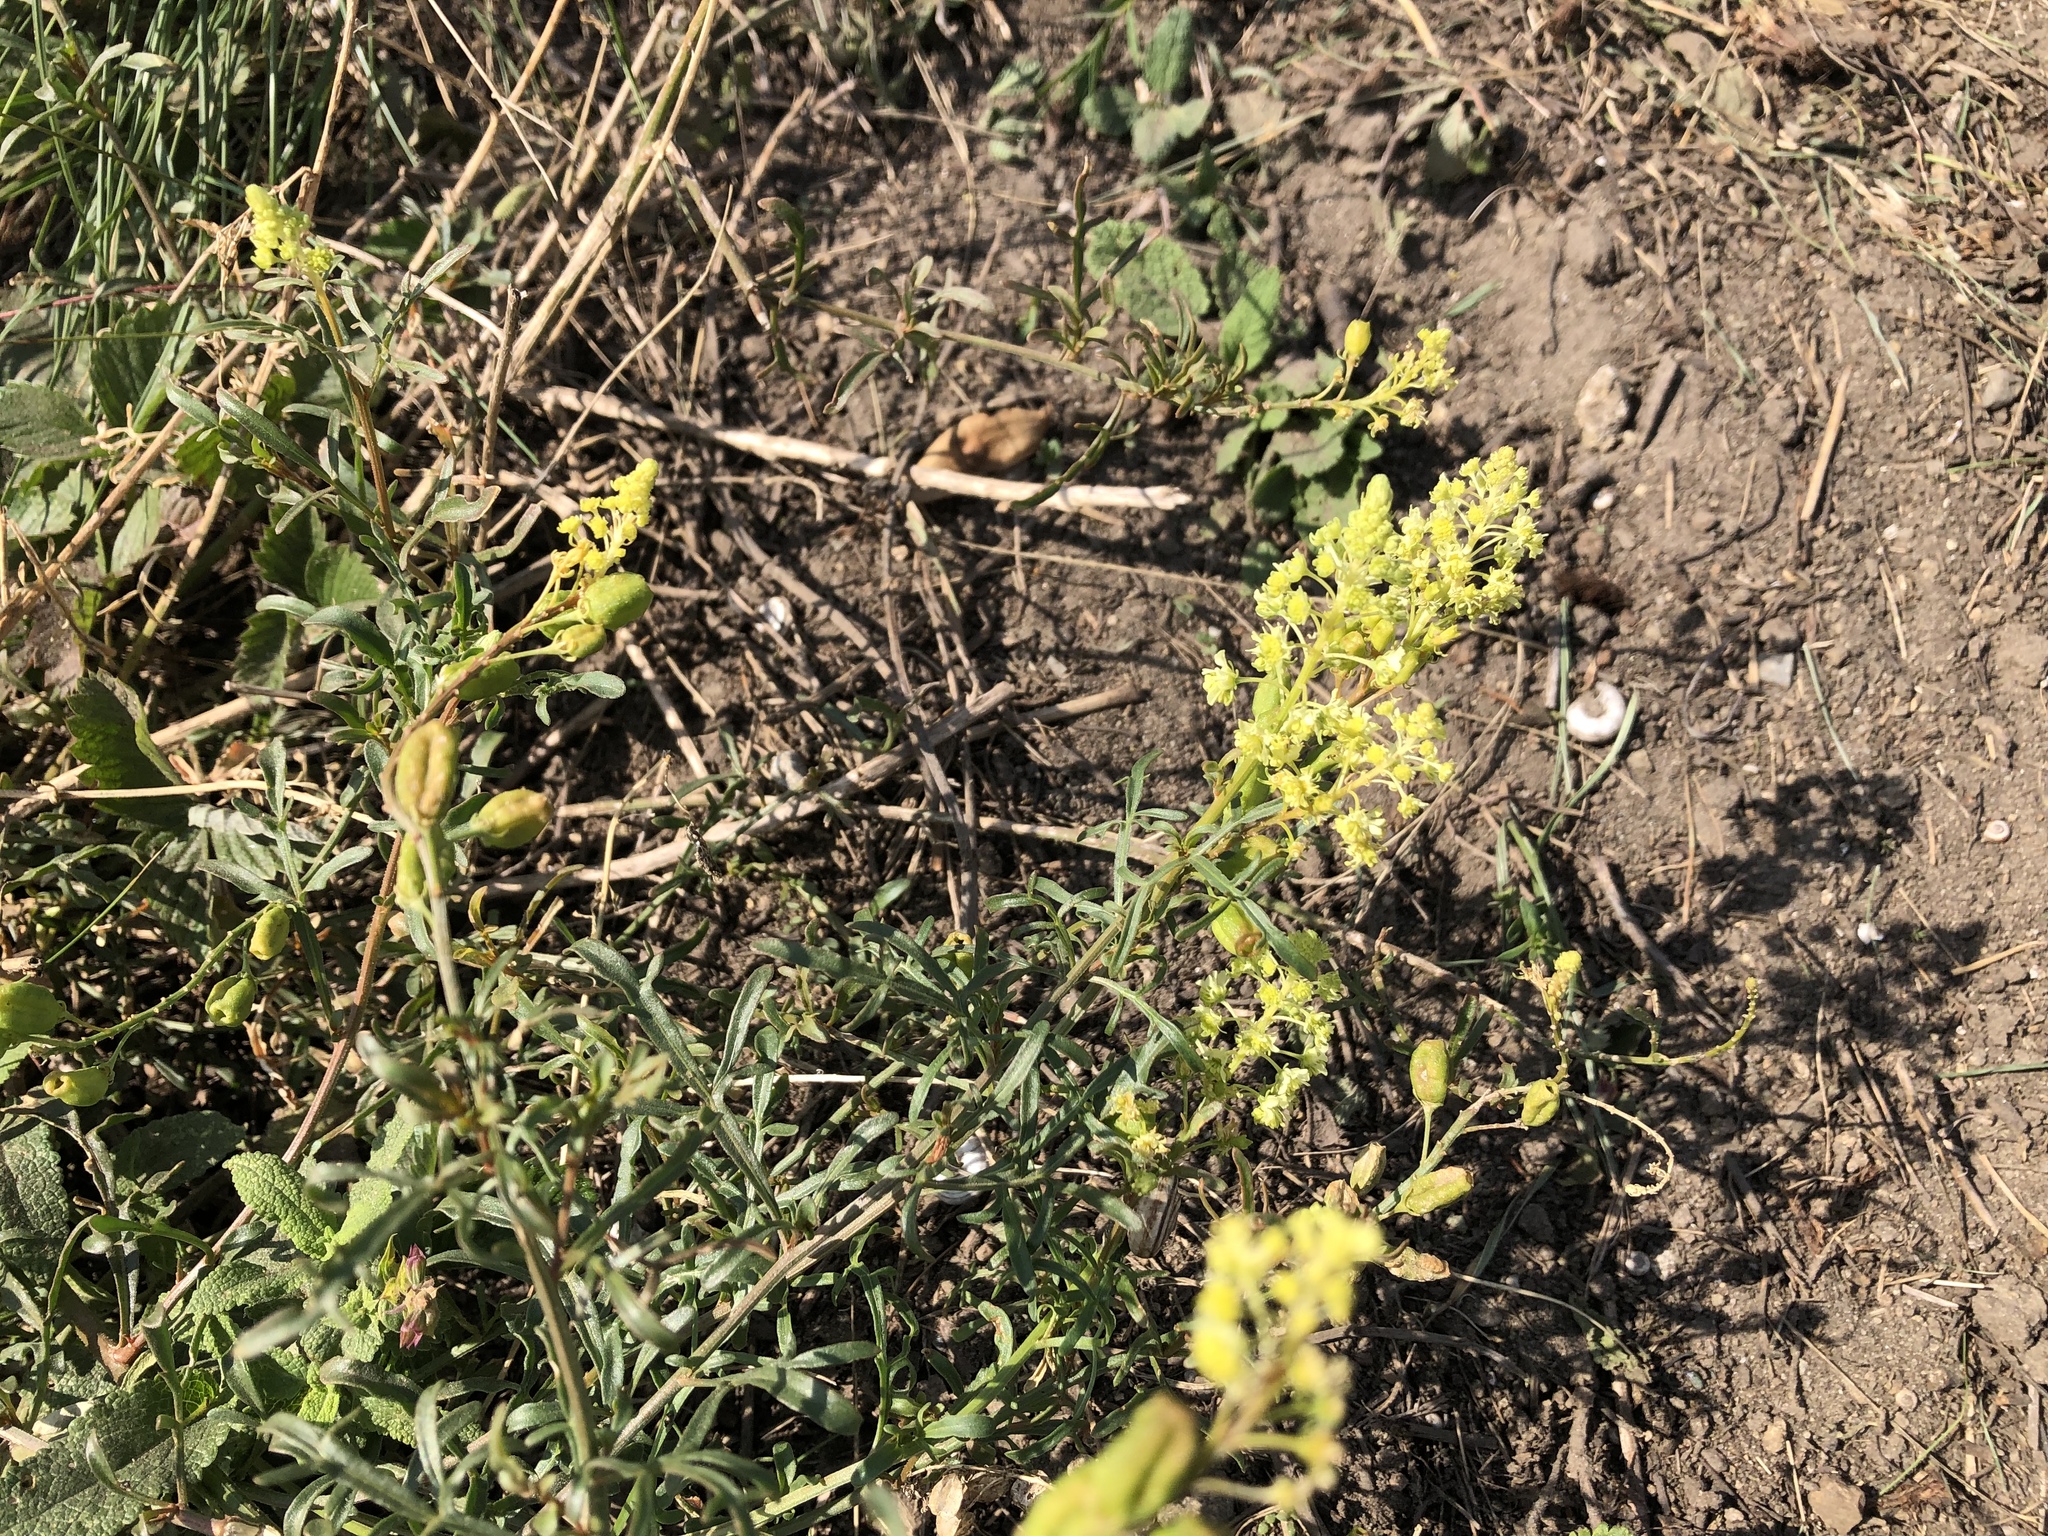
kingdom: Plantae
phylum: Tracheophyta
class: Magnoliopsida
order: Brassicales
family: Resedaceae
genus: Reseda
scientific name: Reseda lutea
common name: Wild mignonette
